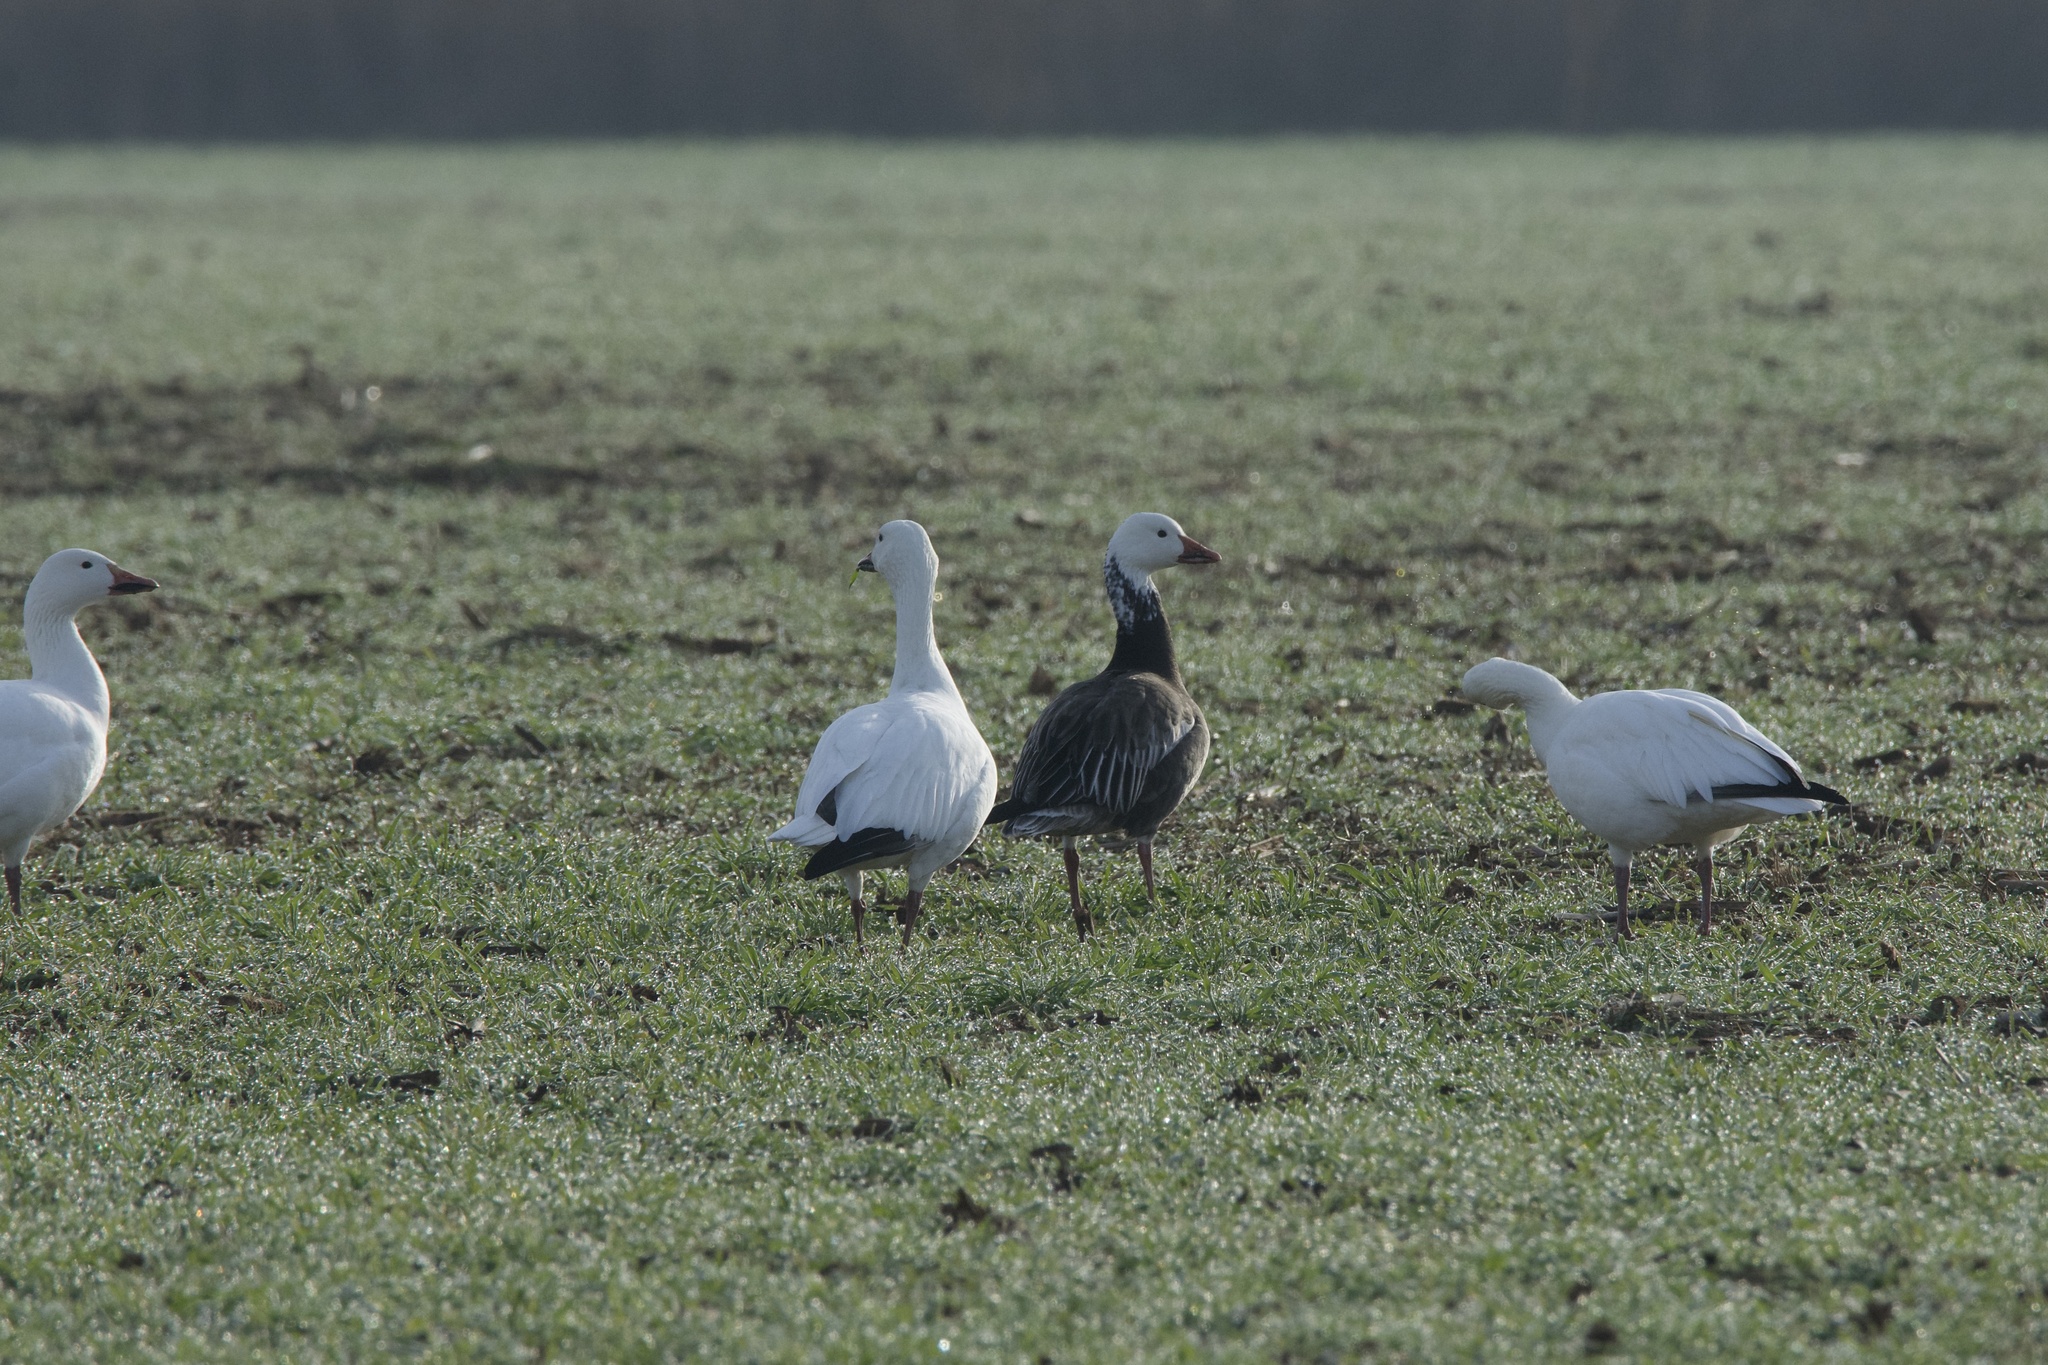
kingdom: Animalia
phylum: Chordata
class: Aves
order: Anseriformes
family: Anatidae
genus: Anser
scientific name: Anser caerulescens
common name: Snow goose
